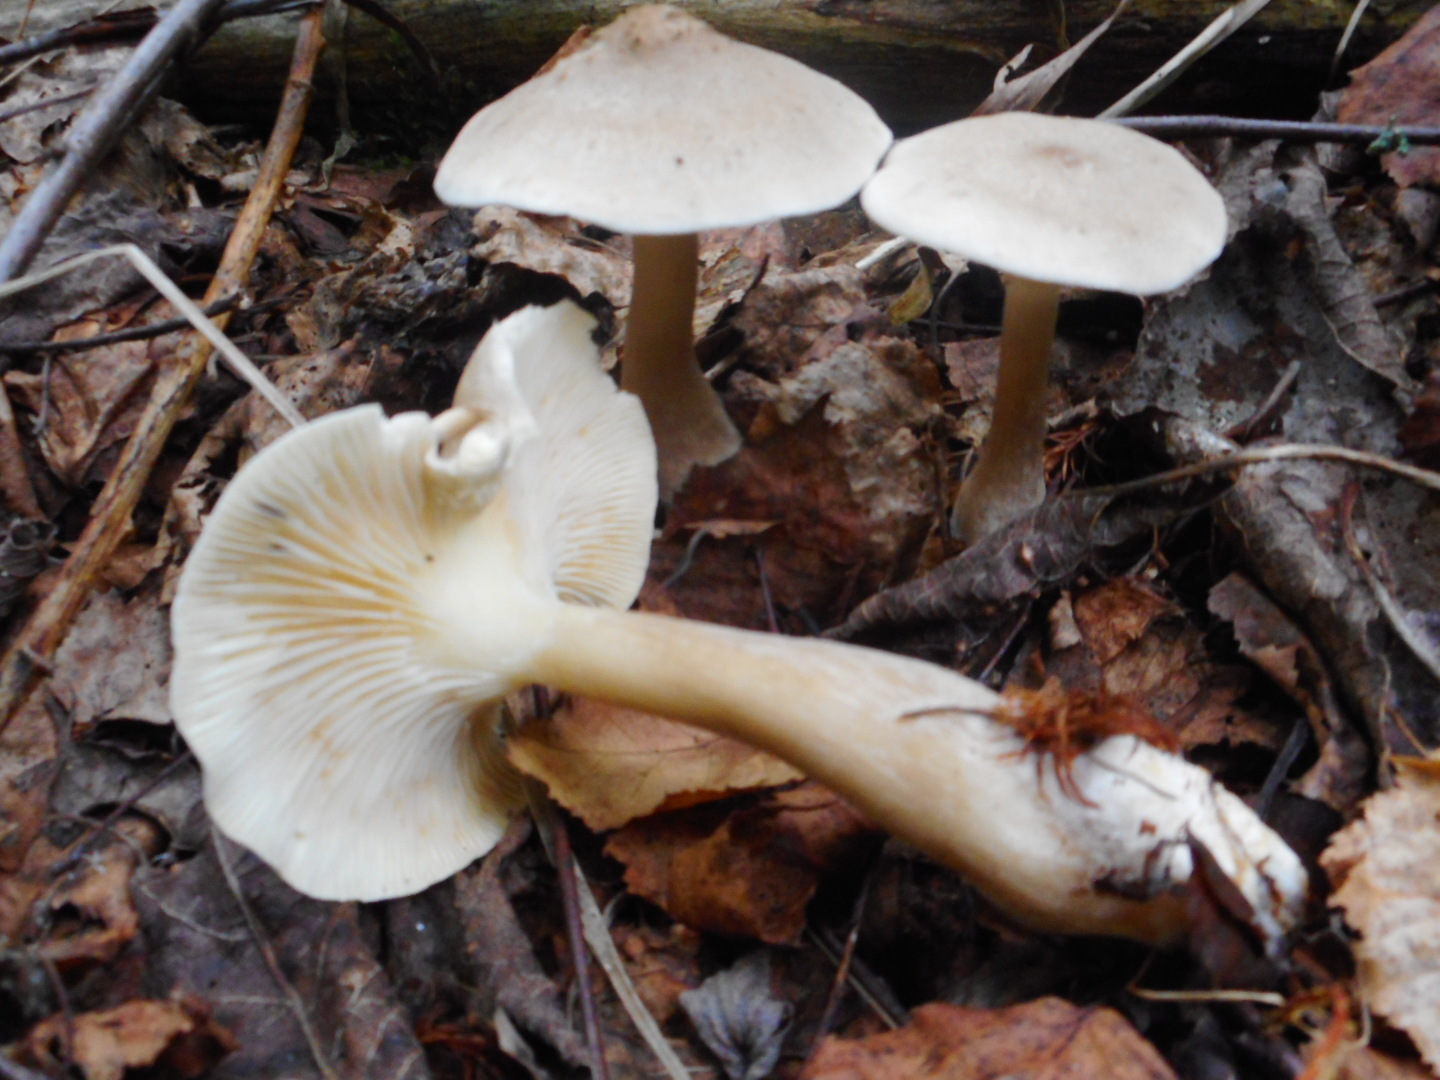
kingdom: Fungi
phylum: Basidiomycota
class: Agaricomycetes
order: Agaricales
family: Hygrophoraceae
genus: Ampulloclitocybe
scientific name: Ampulloclitocybe clavipes
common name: Club foot
